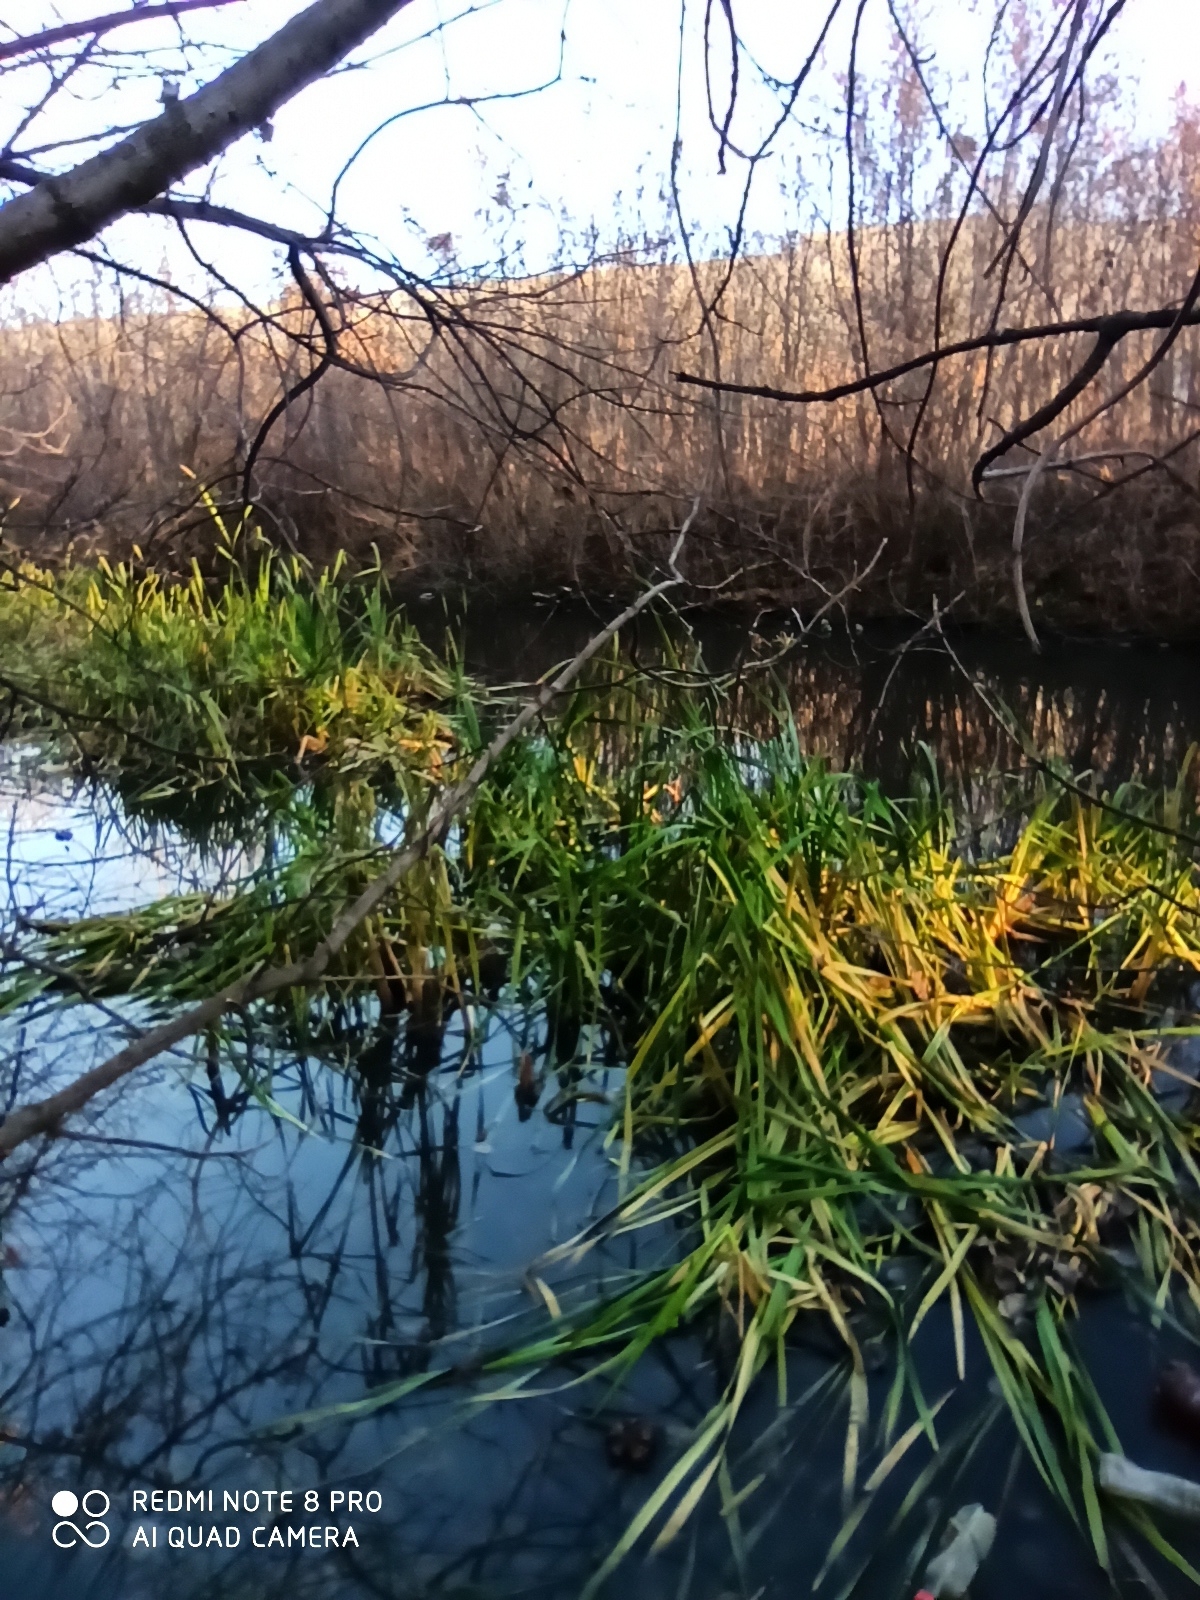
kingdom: Plantae
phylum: Tracheophyta
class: Liliopsida
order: Poales
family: Typhaceae
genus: Typha
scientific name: Typha latifolia
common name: Broadleaf cattail
